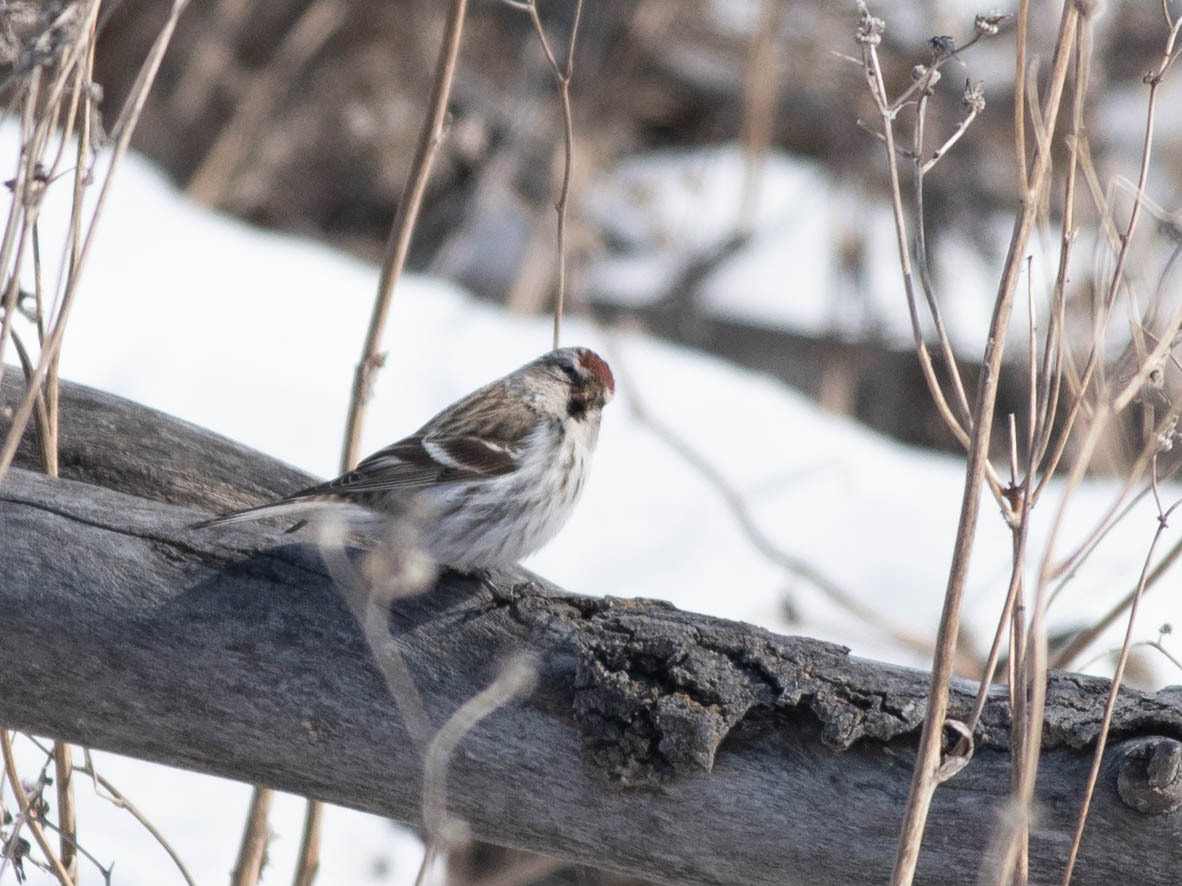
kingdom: Animalia
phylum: Chordata
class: Aves
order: Passeriformes
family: Fringillidae
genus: Acanthis
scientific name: Acanthis flammea
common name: Common redpoll
